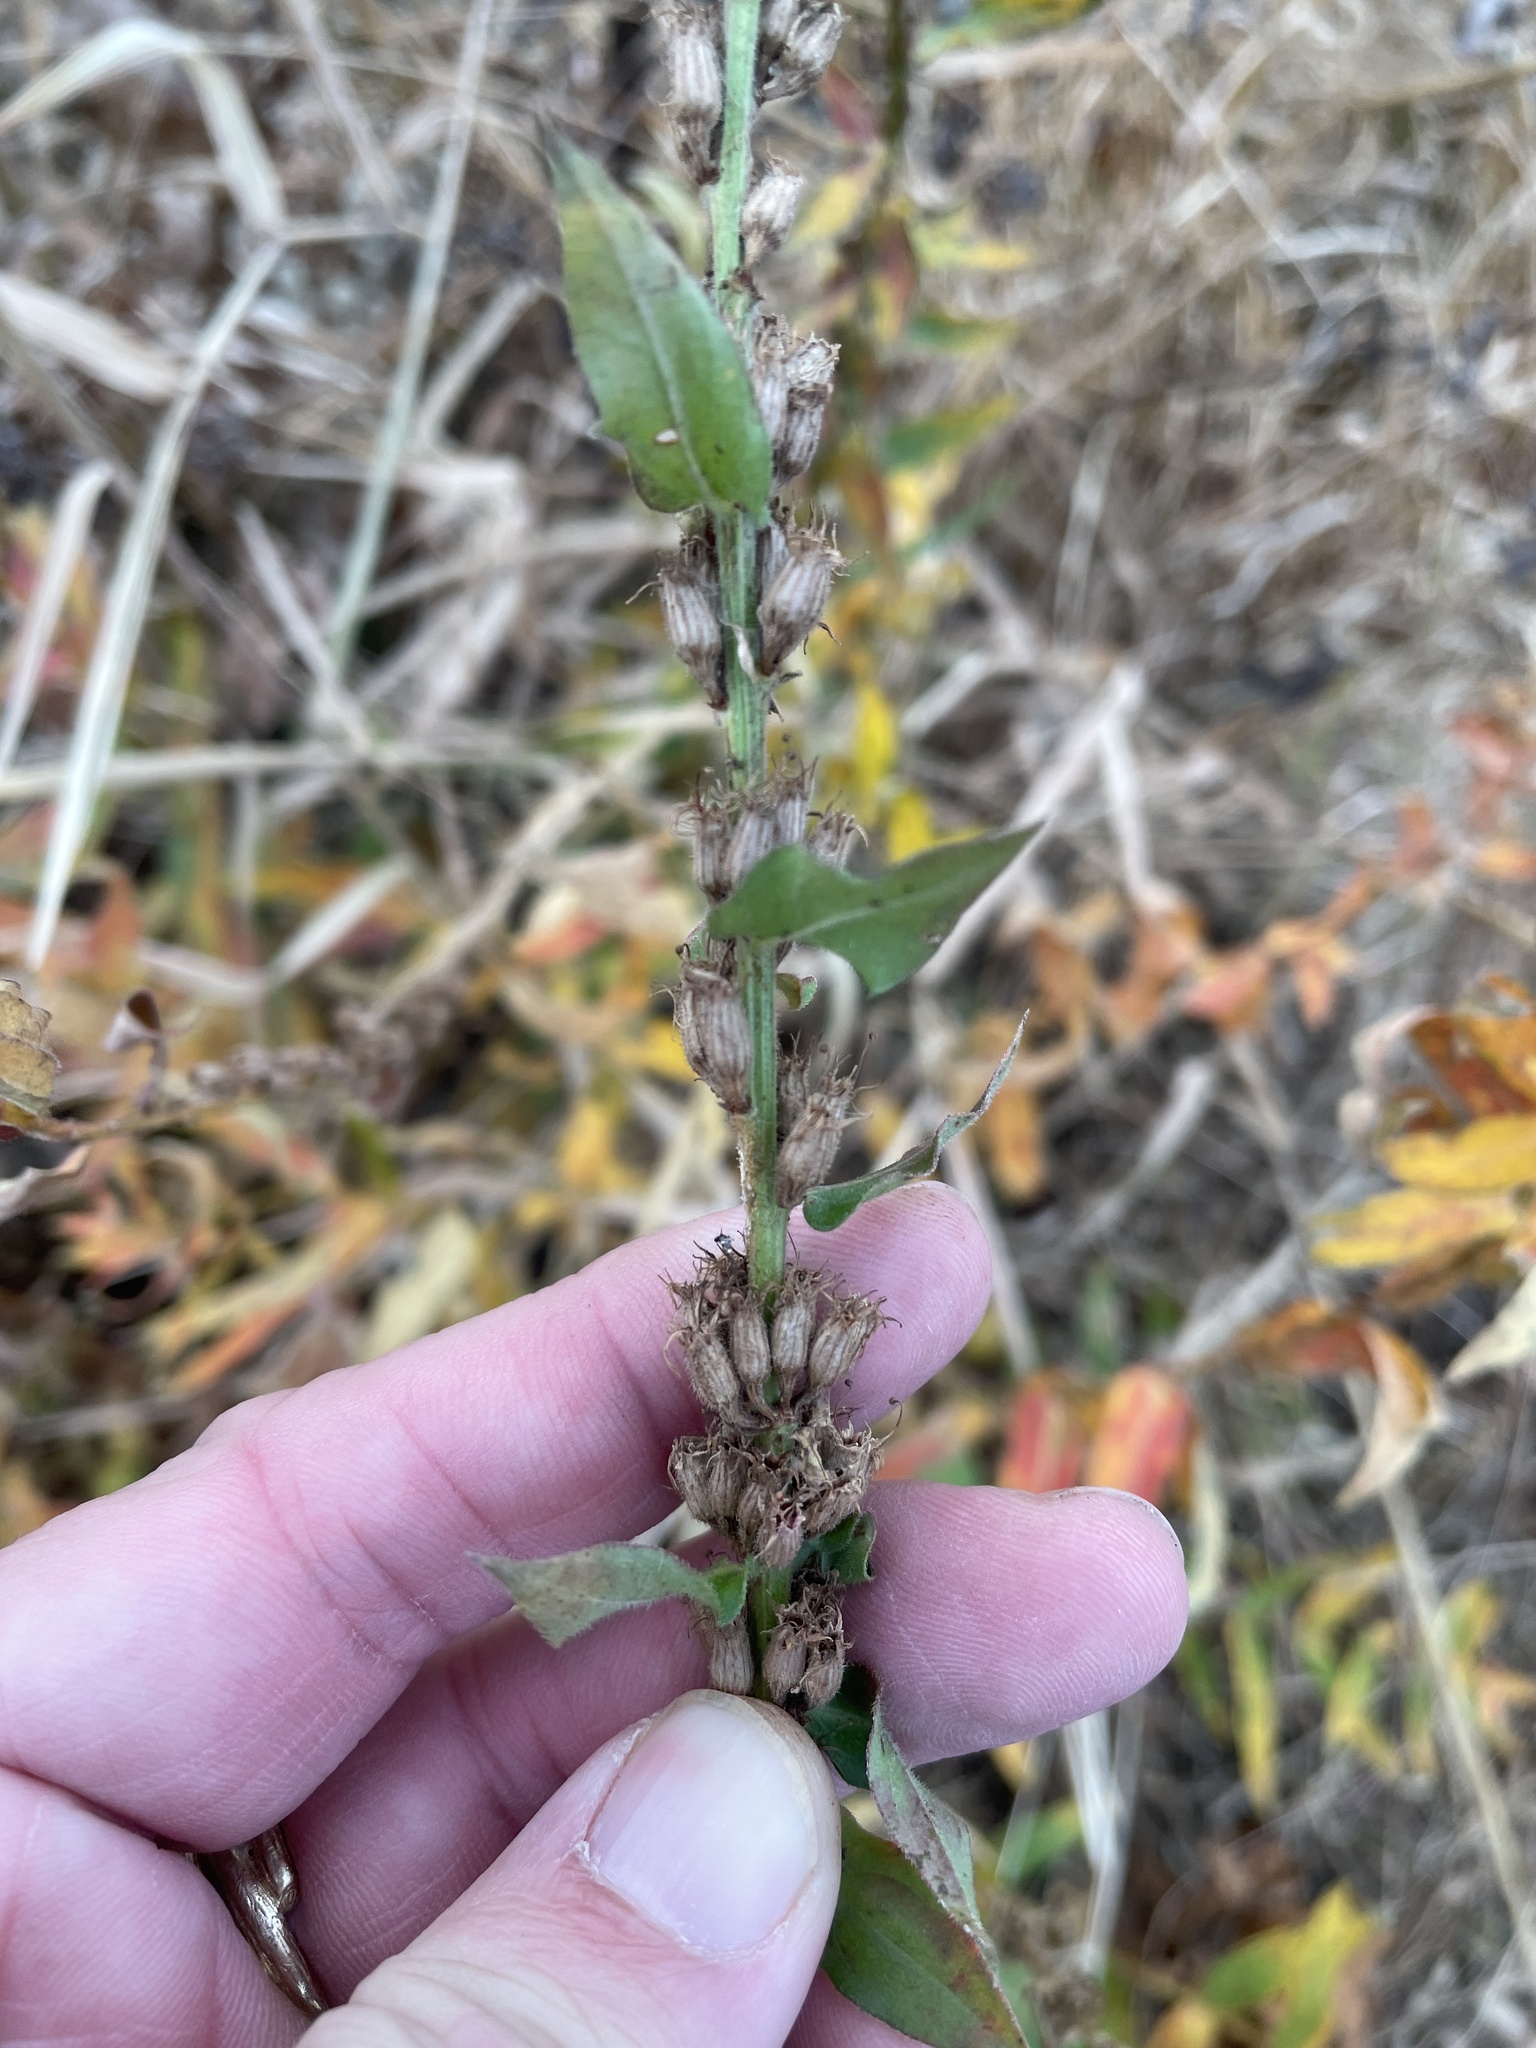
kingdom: Plantae
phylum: Tracheophyta
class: Magnoliopsida
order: Asterales
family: Campanulaceae
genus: Lobelia
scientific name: Lobelia siphilitica
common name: Great lobelia
